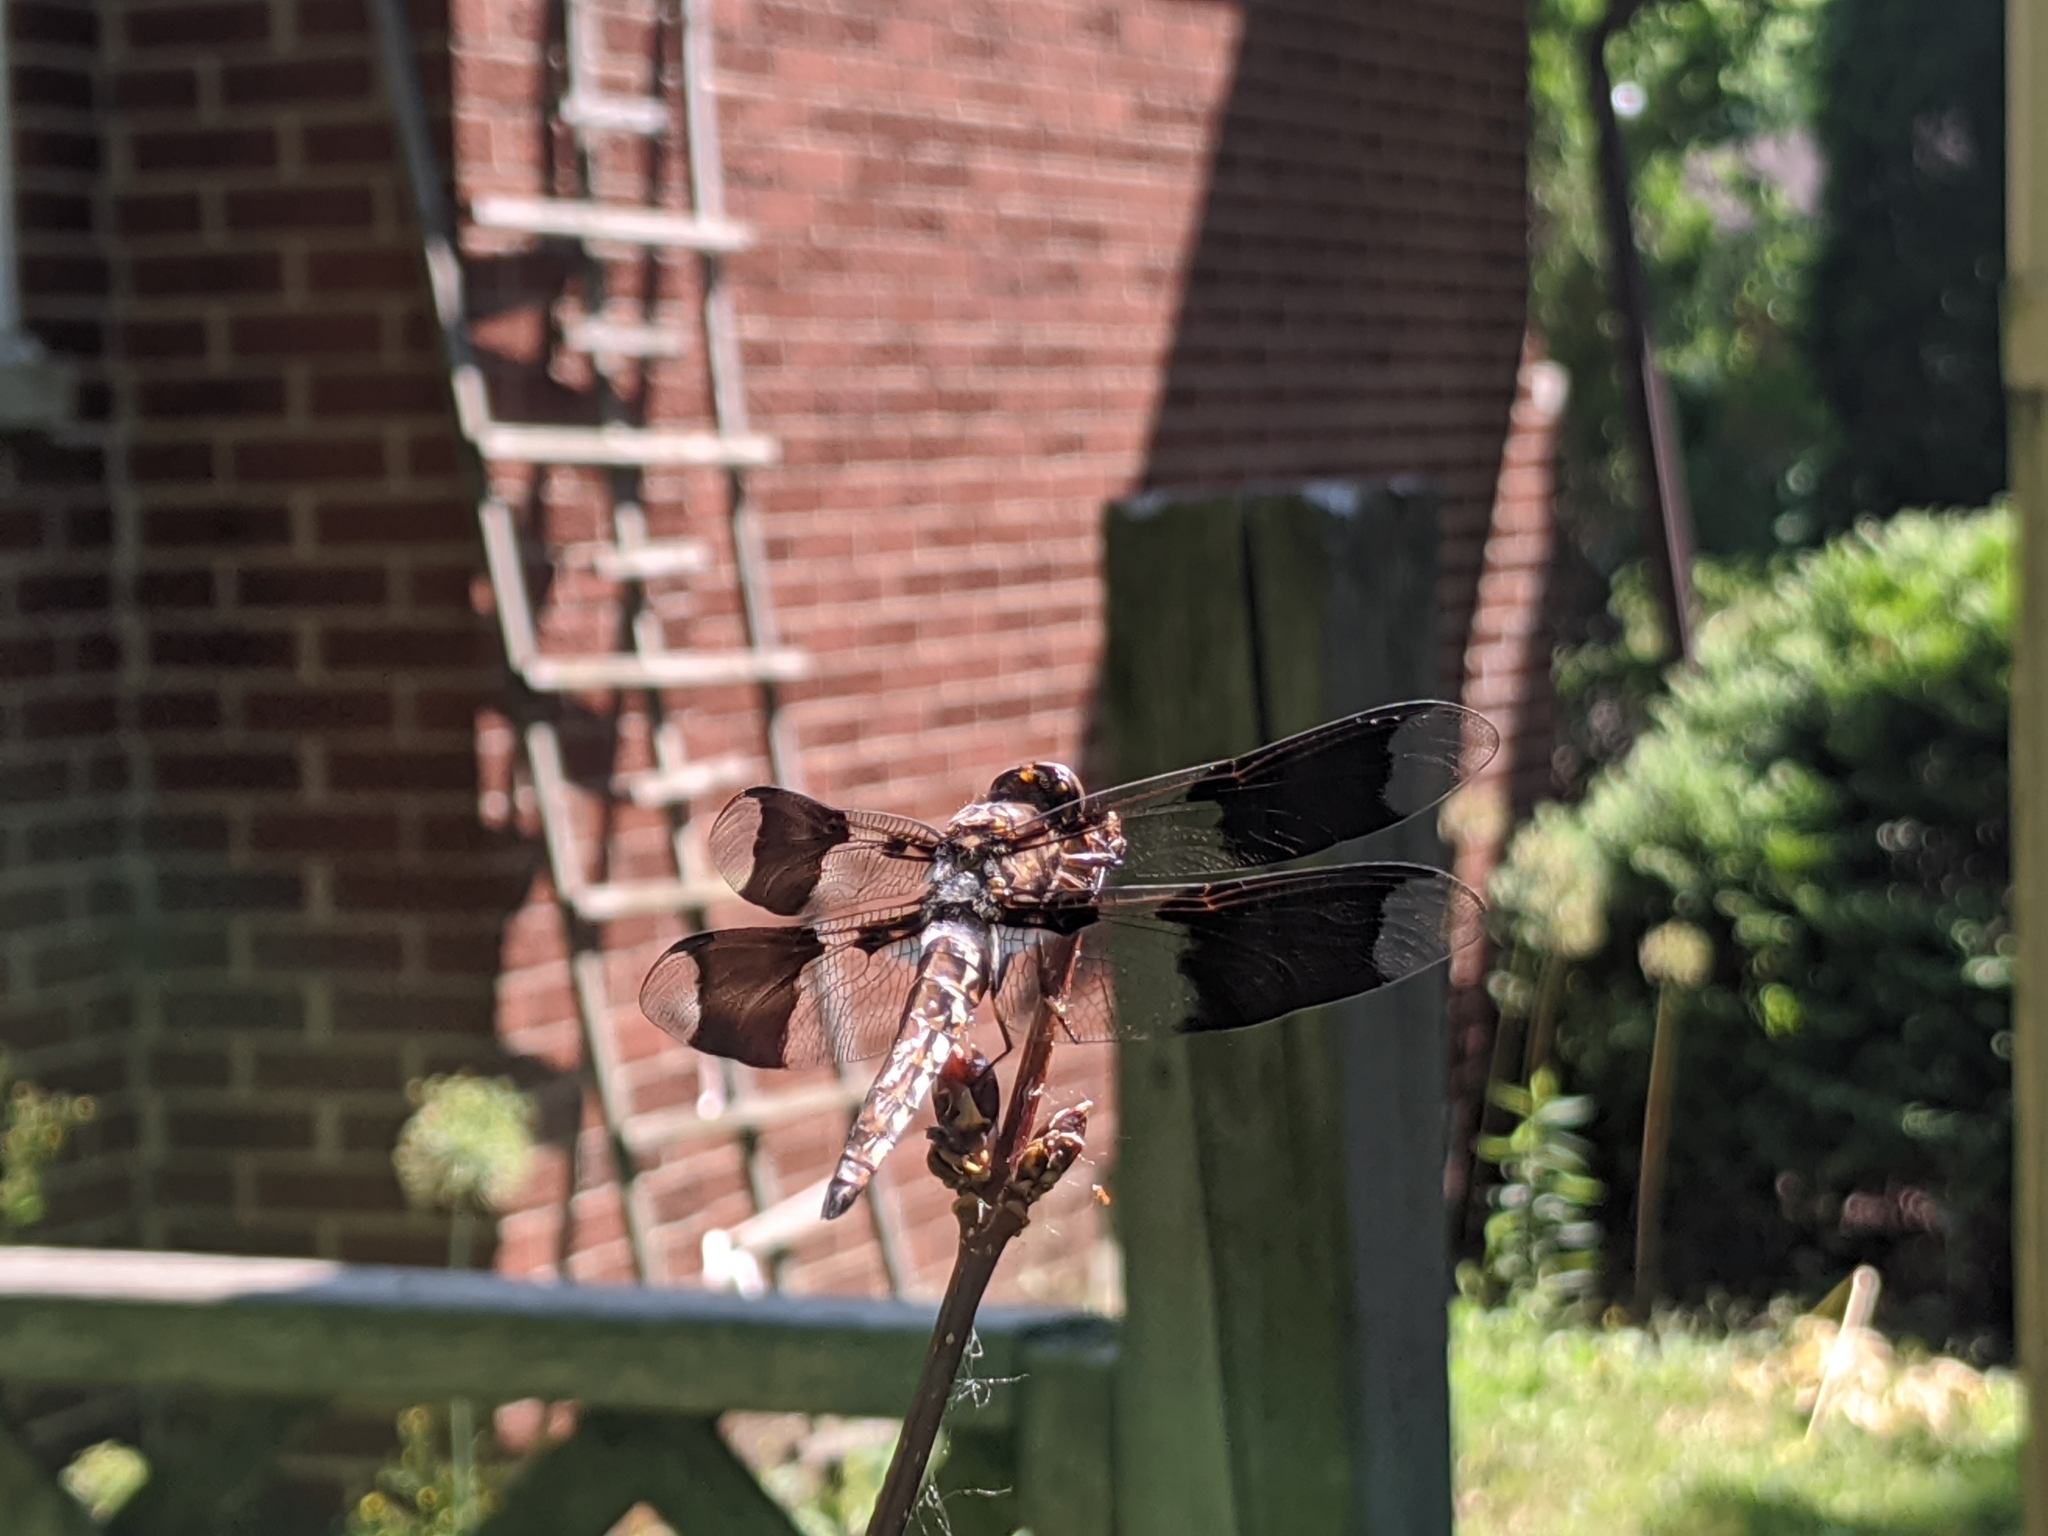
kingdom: Animalia
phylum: Arthropoda
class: Insecta
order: Odonata
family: Libellulidae
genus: Plathemis
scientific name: Plathemis lydia
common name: Common whitetail
